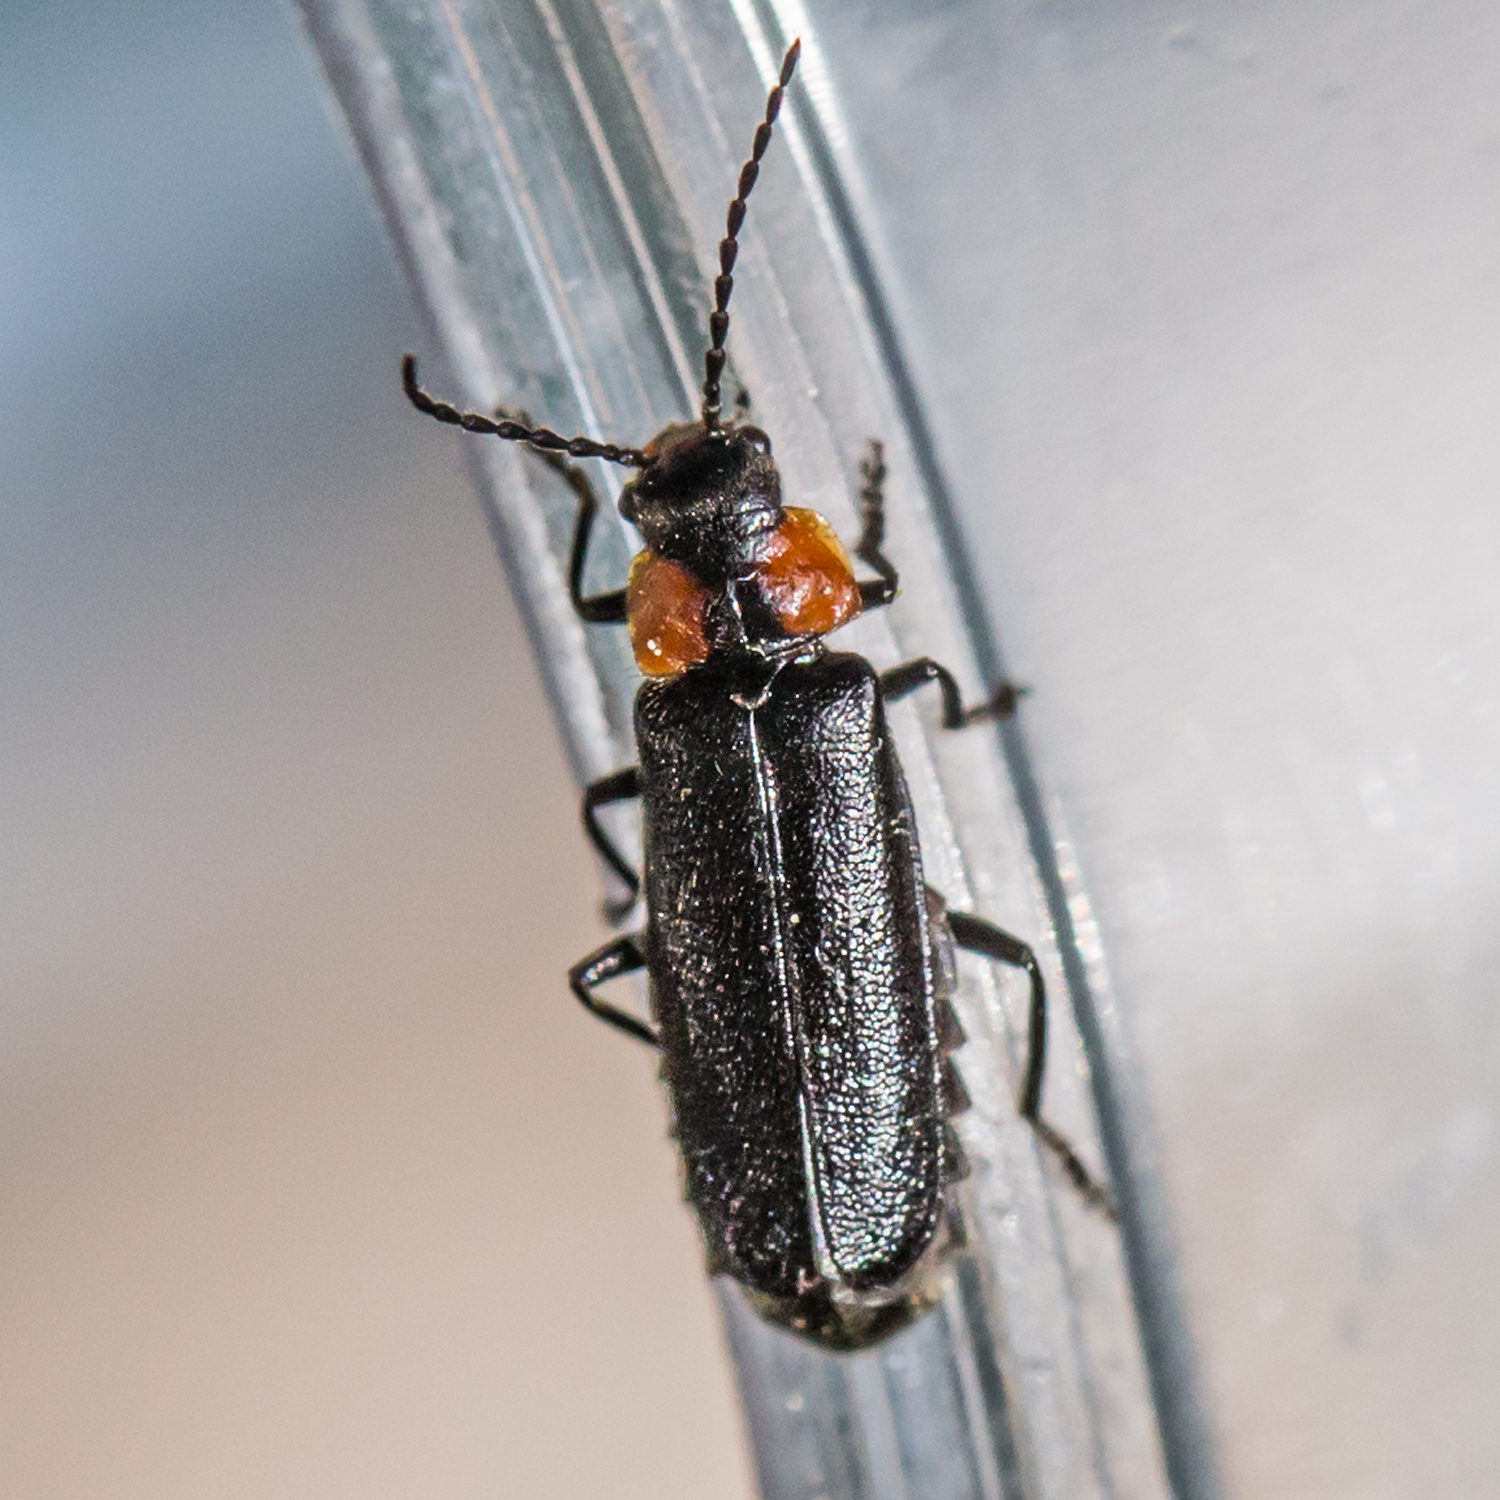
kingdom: Animalia
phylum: Arthropoda
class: Insecta
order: Coleoptera
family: Cantharidae
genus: Cantharis
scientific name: Cantharis tuberculata
